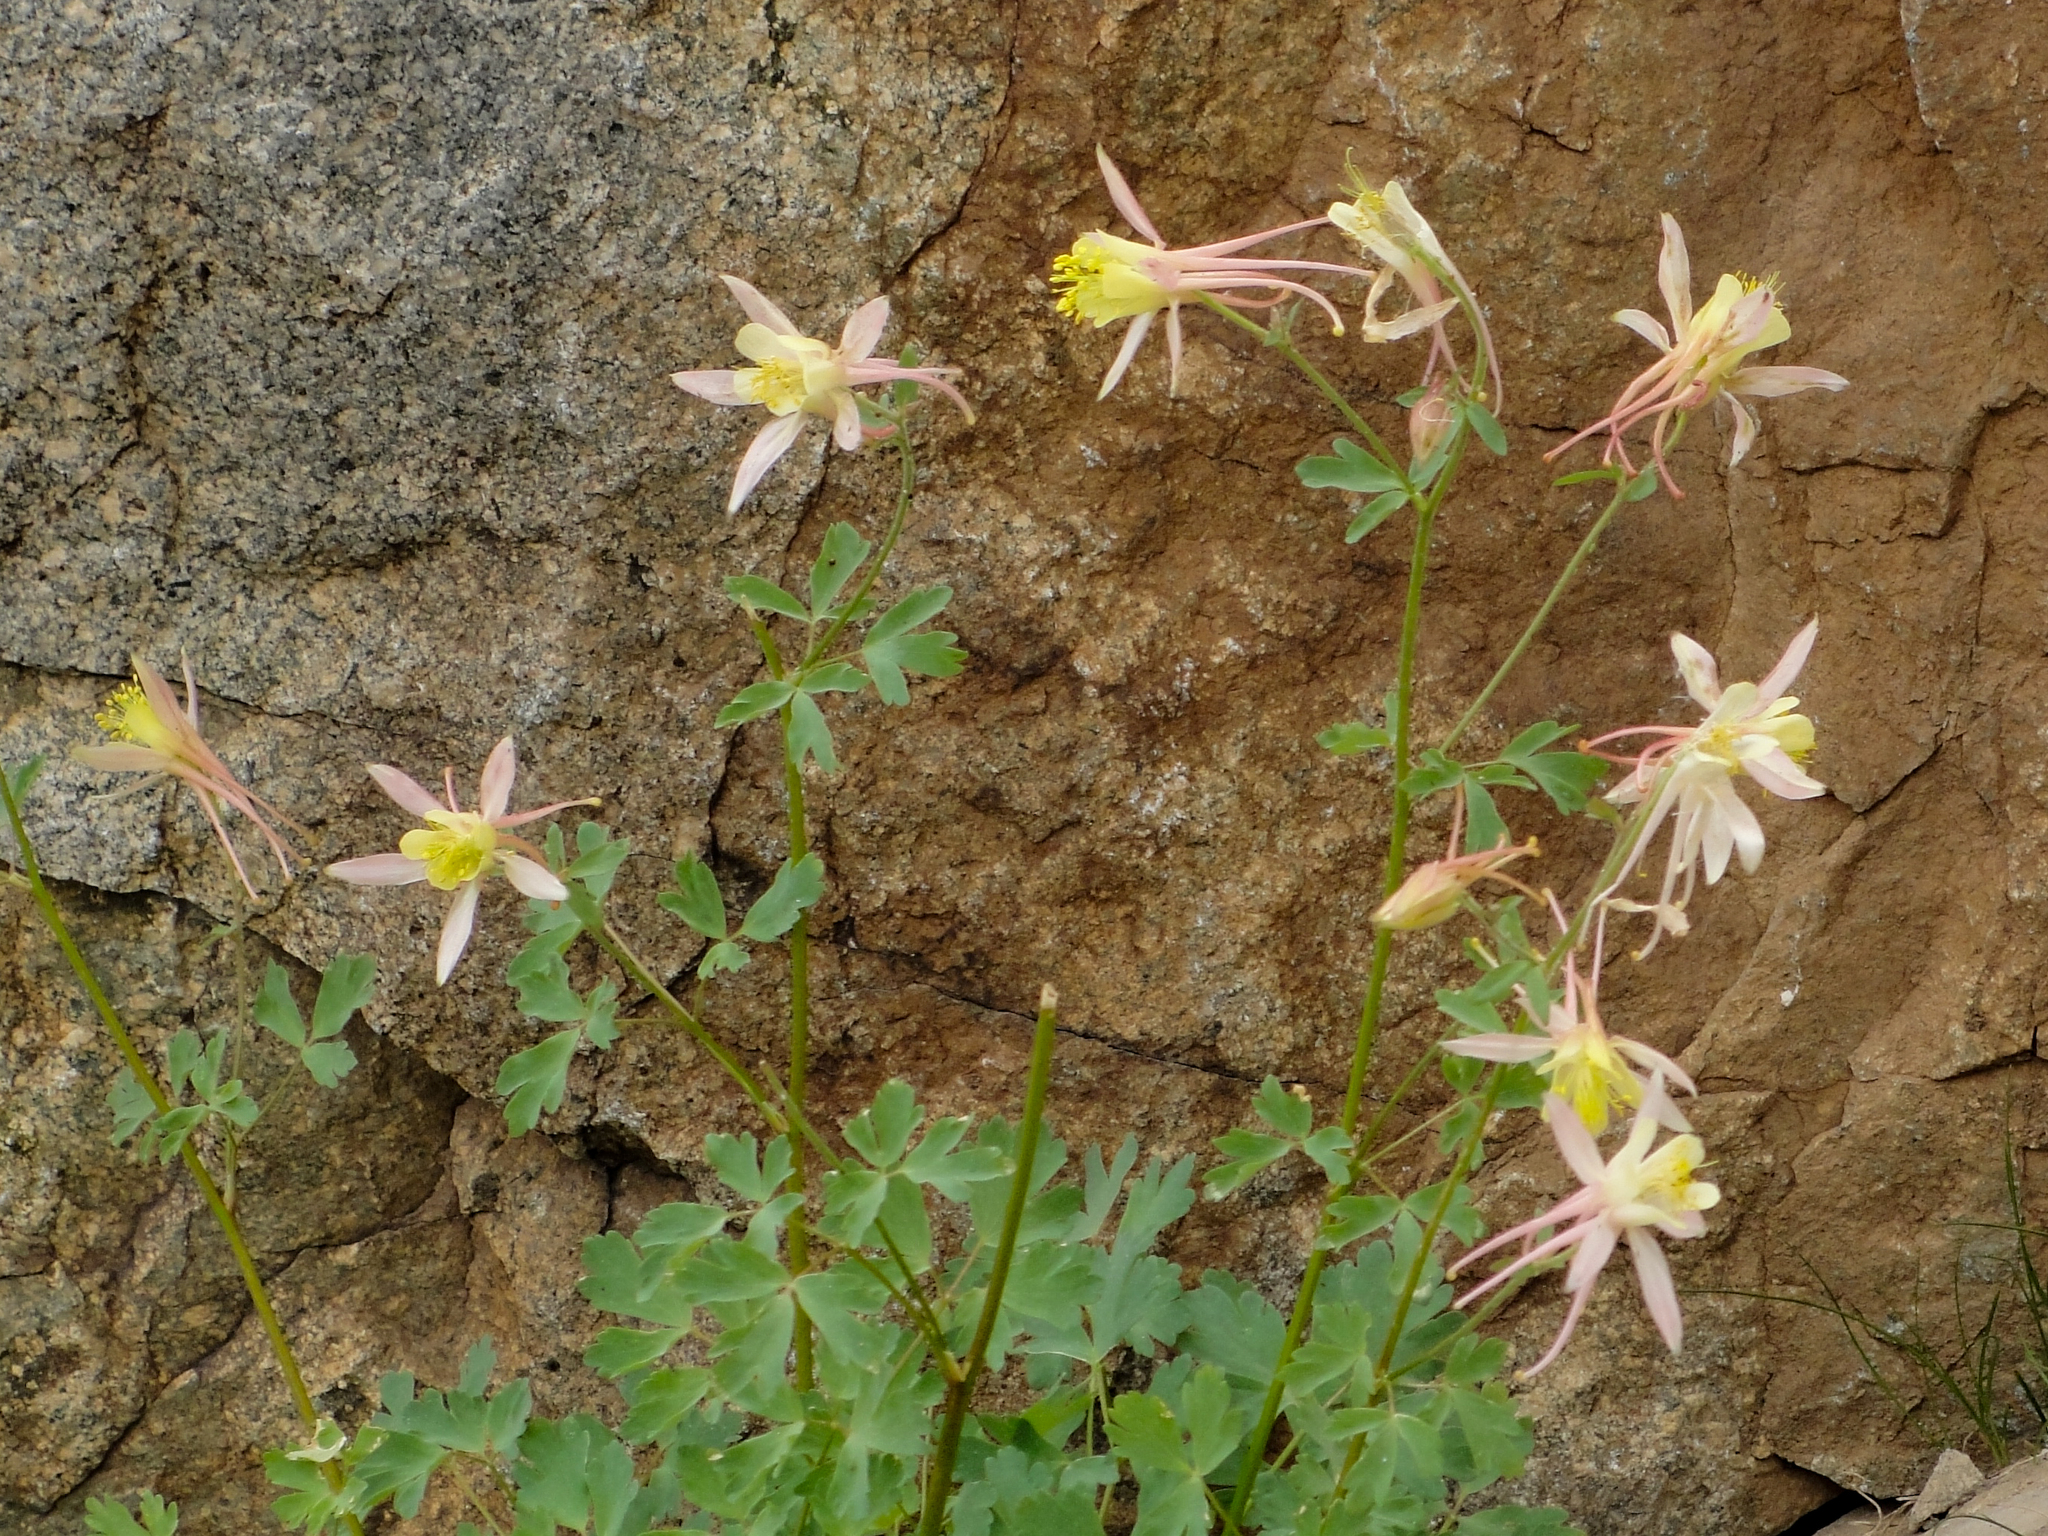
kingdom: Plantae
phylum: Tracheophyta
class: Magnoliopsida
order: Ranunculales
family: Ranunculaceae
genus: Aquilegia
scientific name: Aquilegia pubescens
